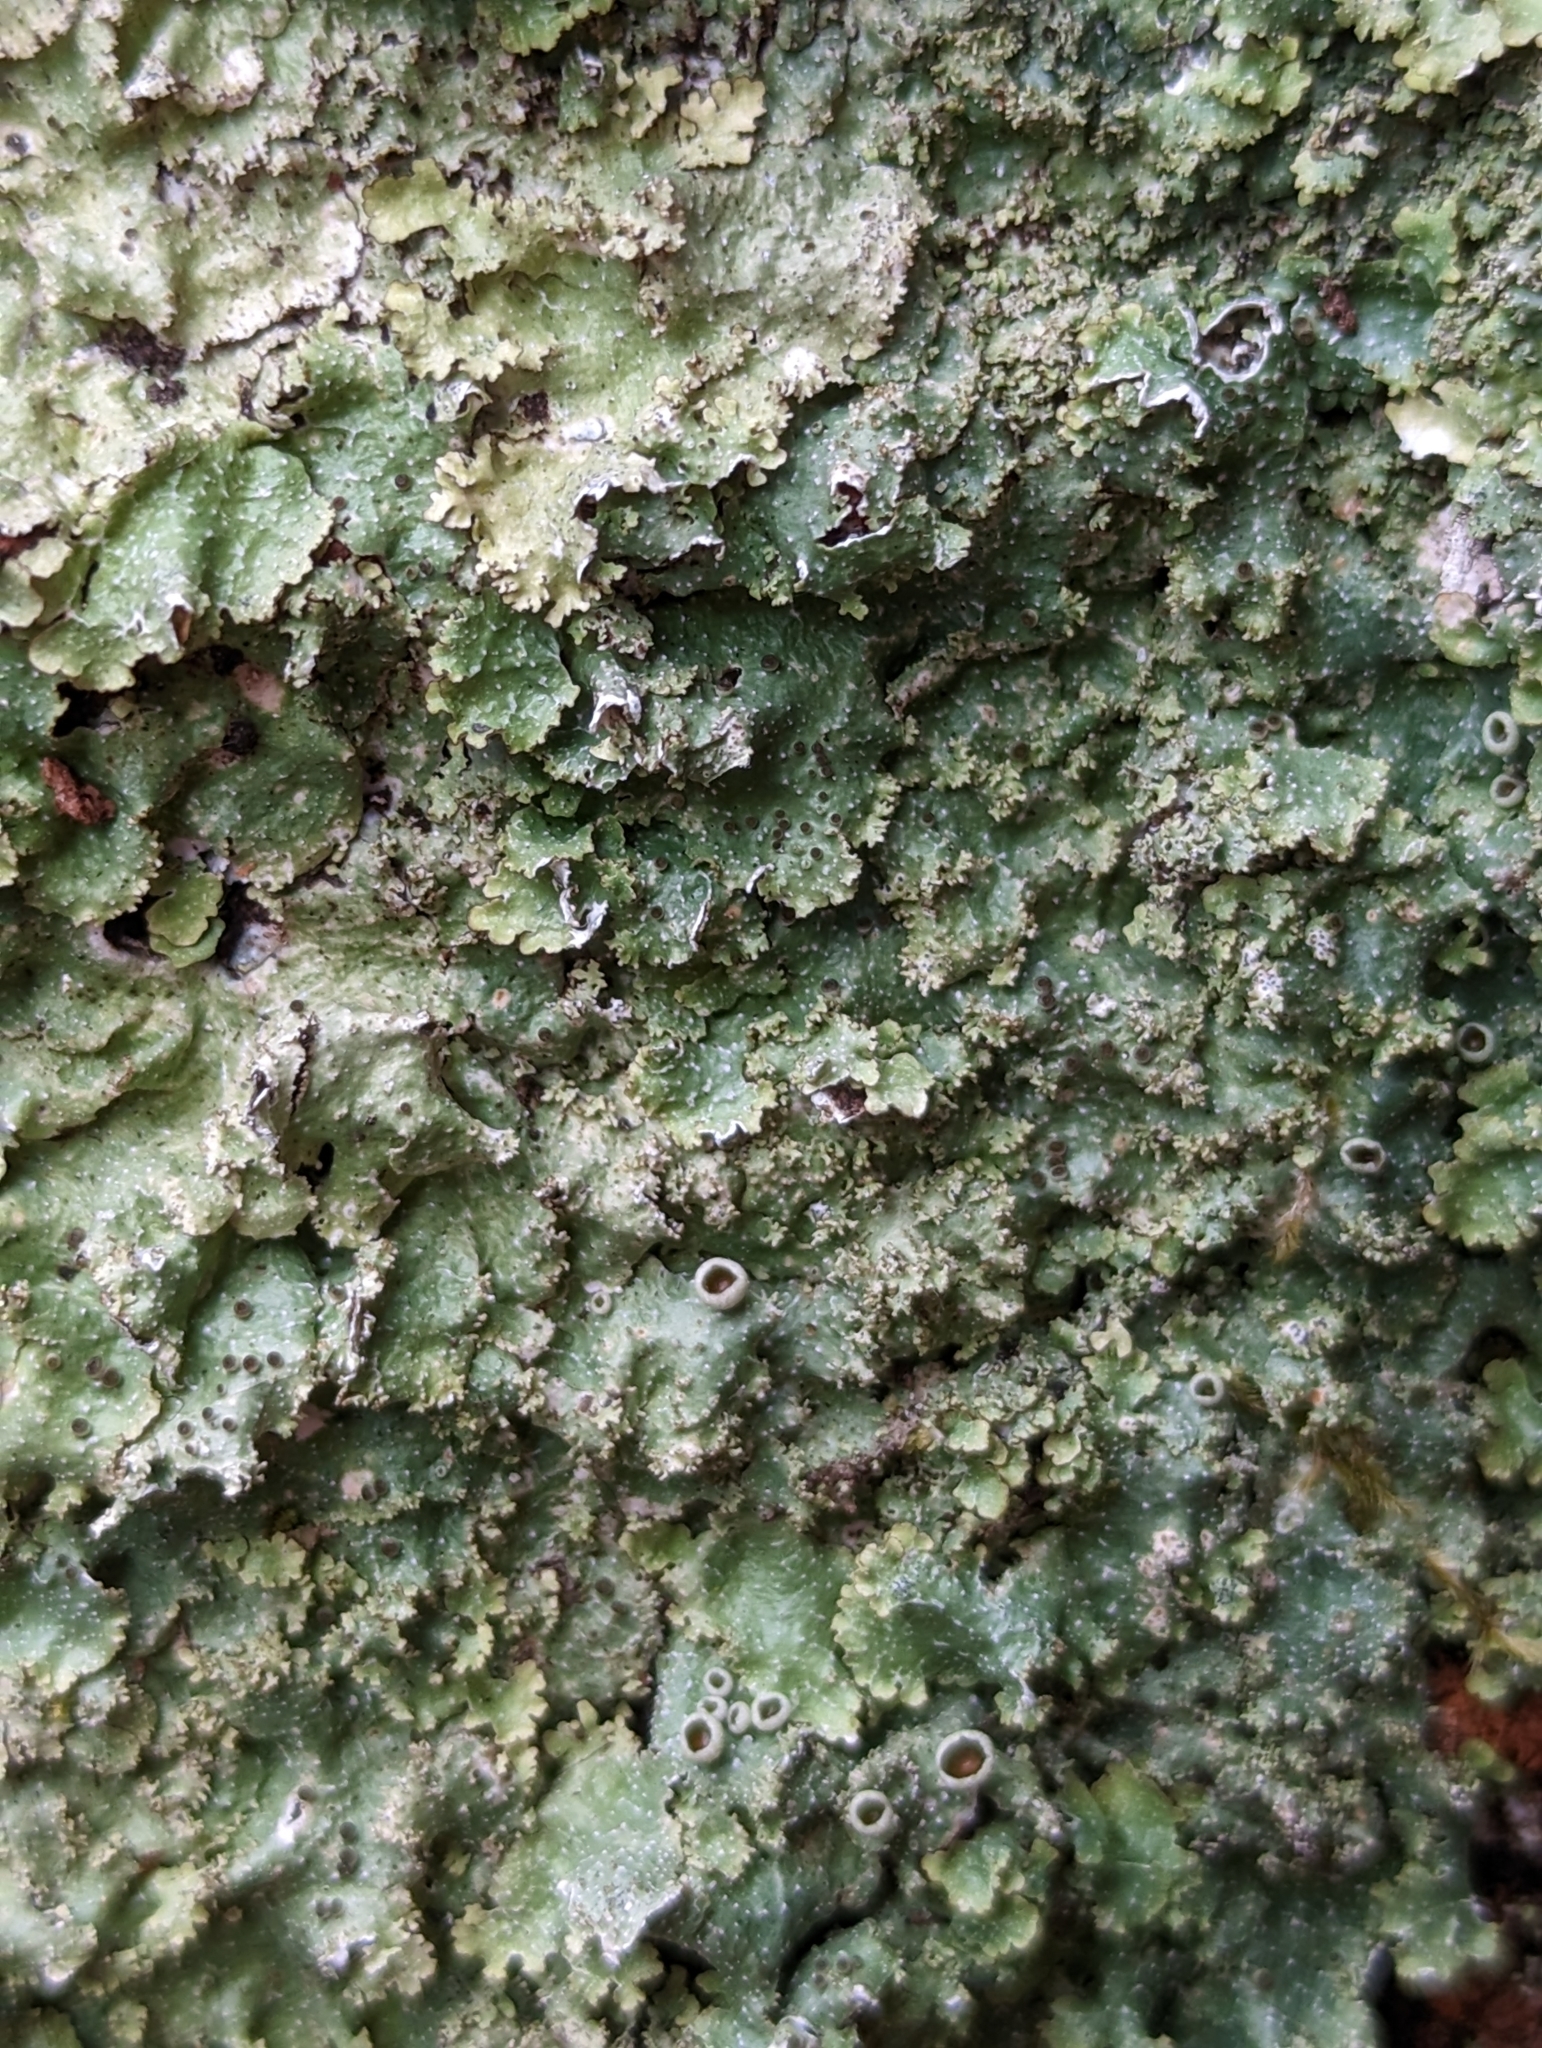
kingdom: Fungi
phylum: Ascomycota
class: Lecanoromycetes
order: Lecanorales
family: Parmeliaceae
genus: Punctelia
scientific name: Punctelia rudecta
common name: Rough speckled shield lichen
